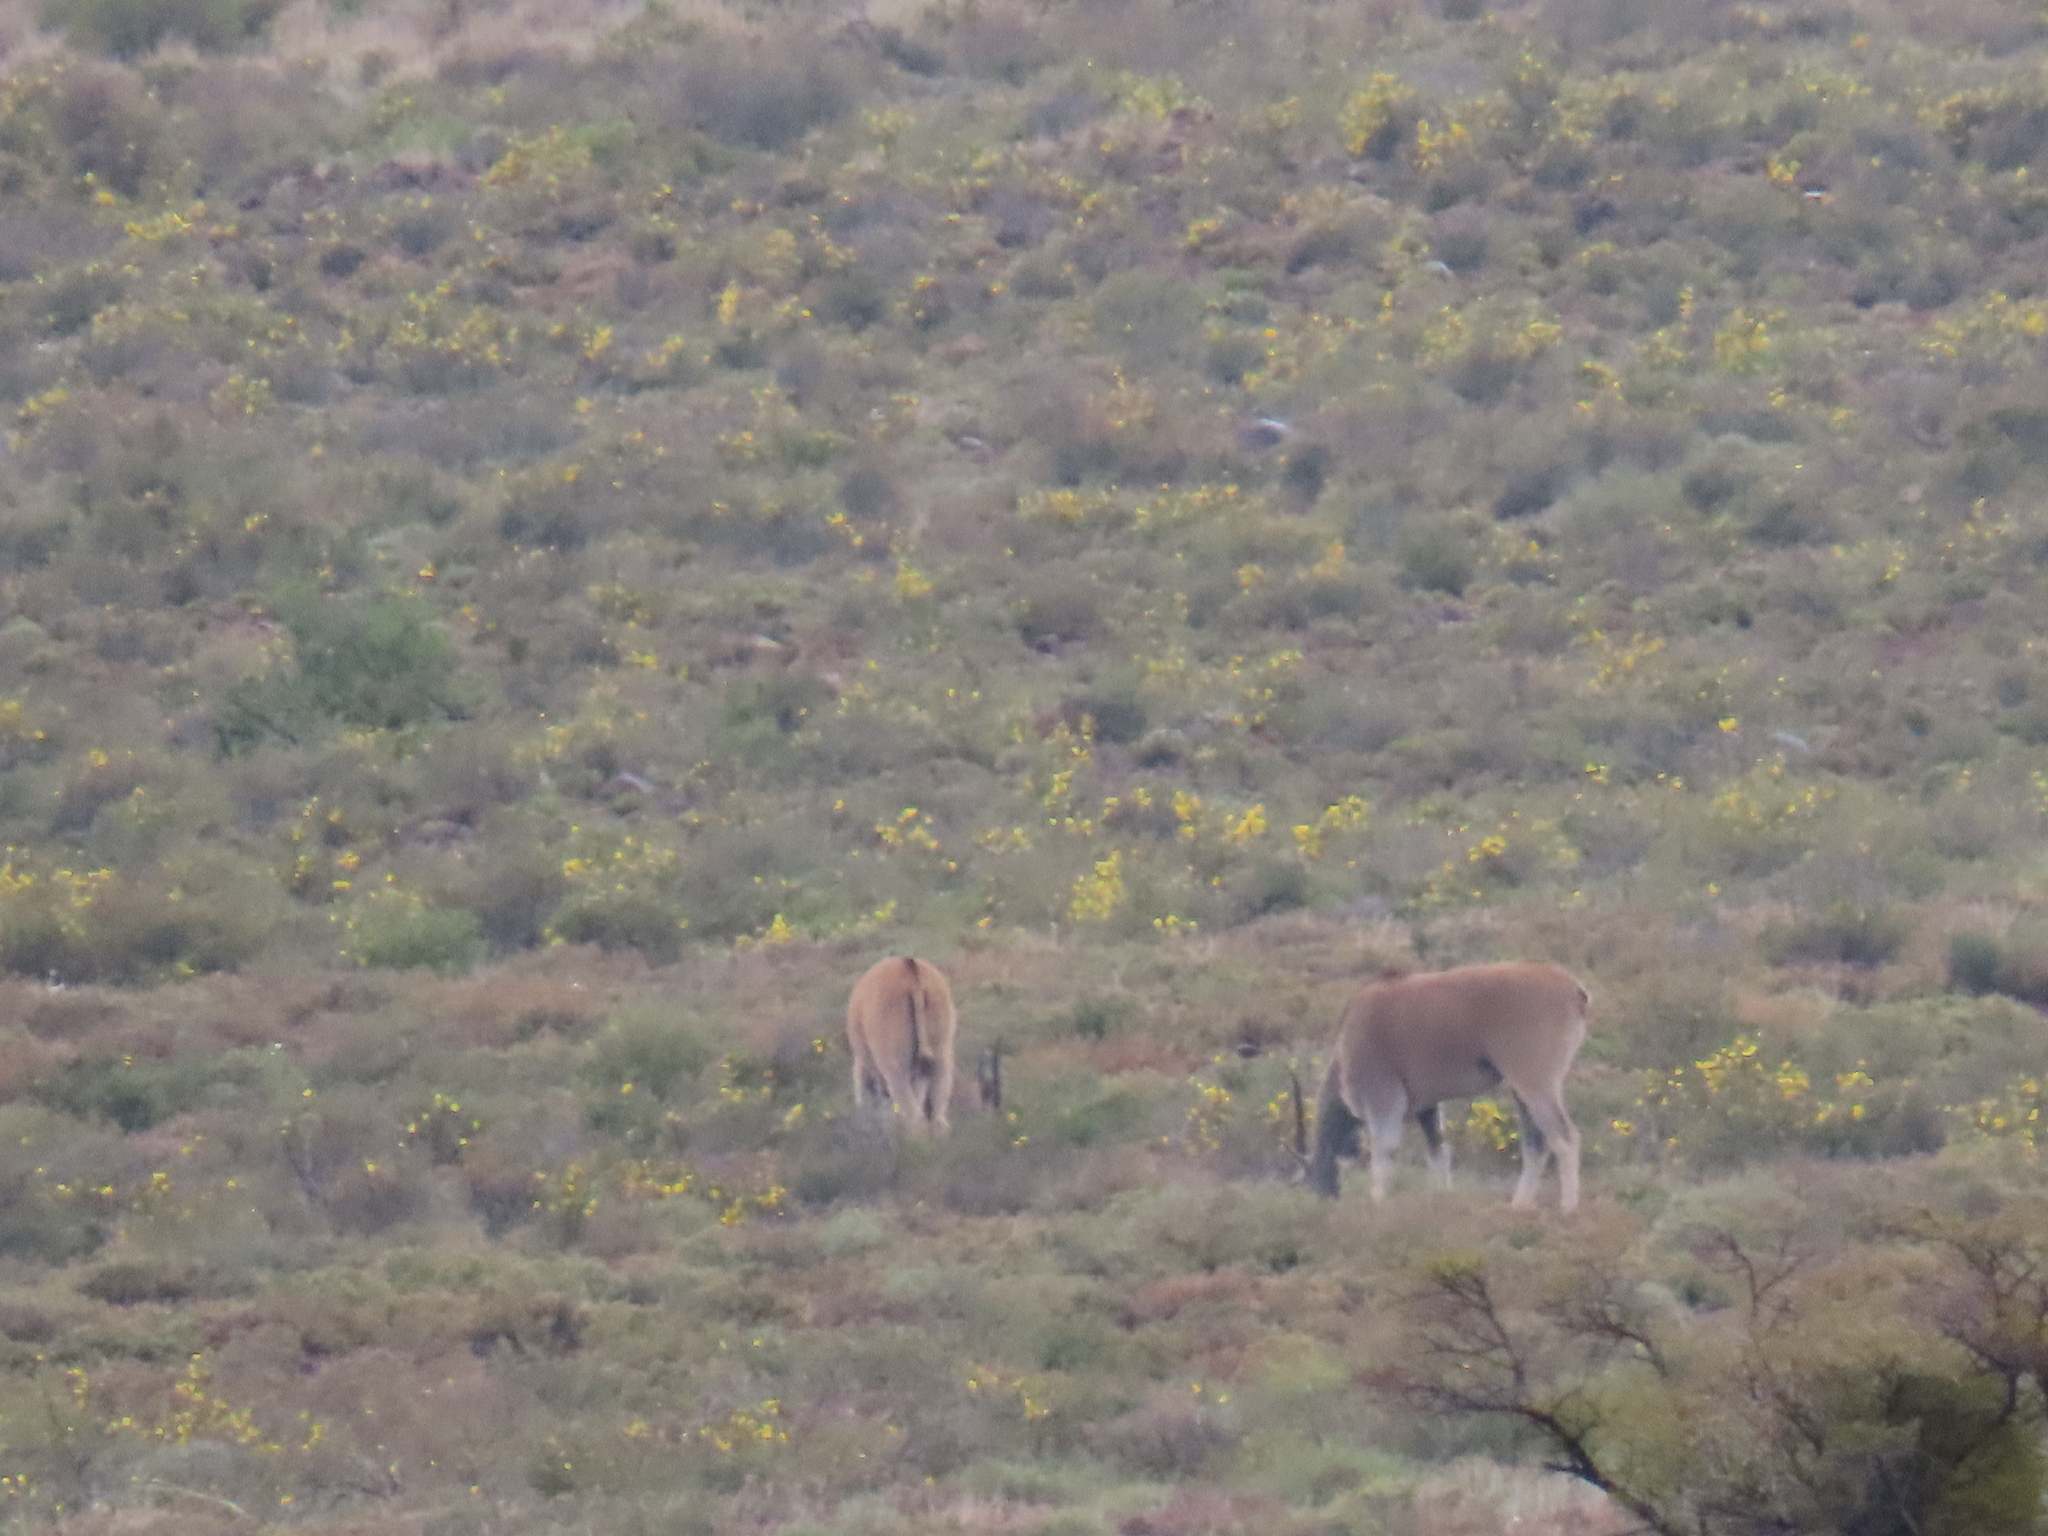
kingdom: Animalia
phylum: Chordata
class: Mammalia
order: Artiodactyla
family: Bovidae
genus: Taurotragus
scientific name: Taurotragus oryx
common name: Common eland
